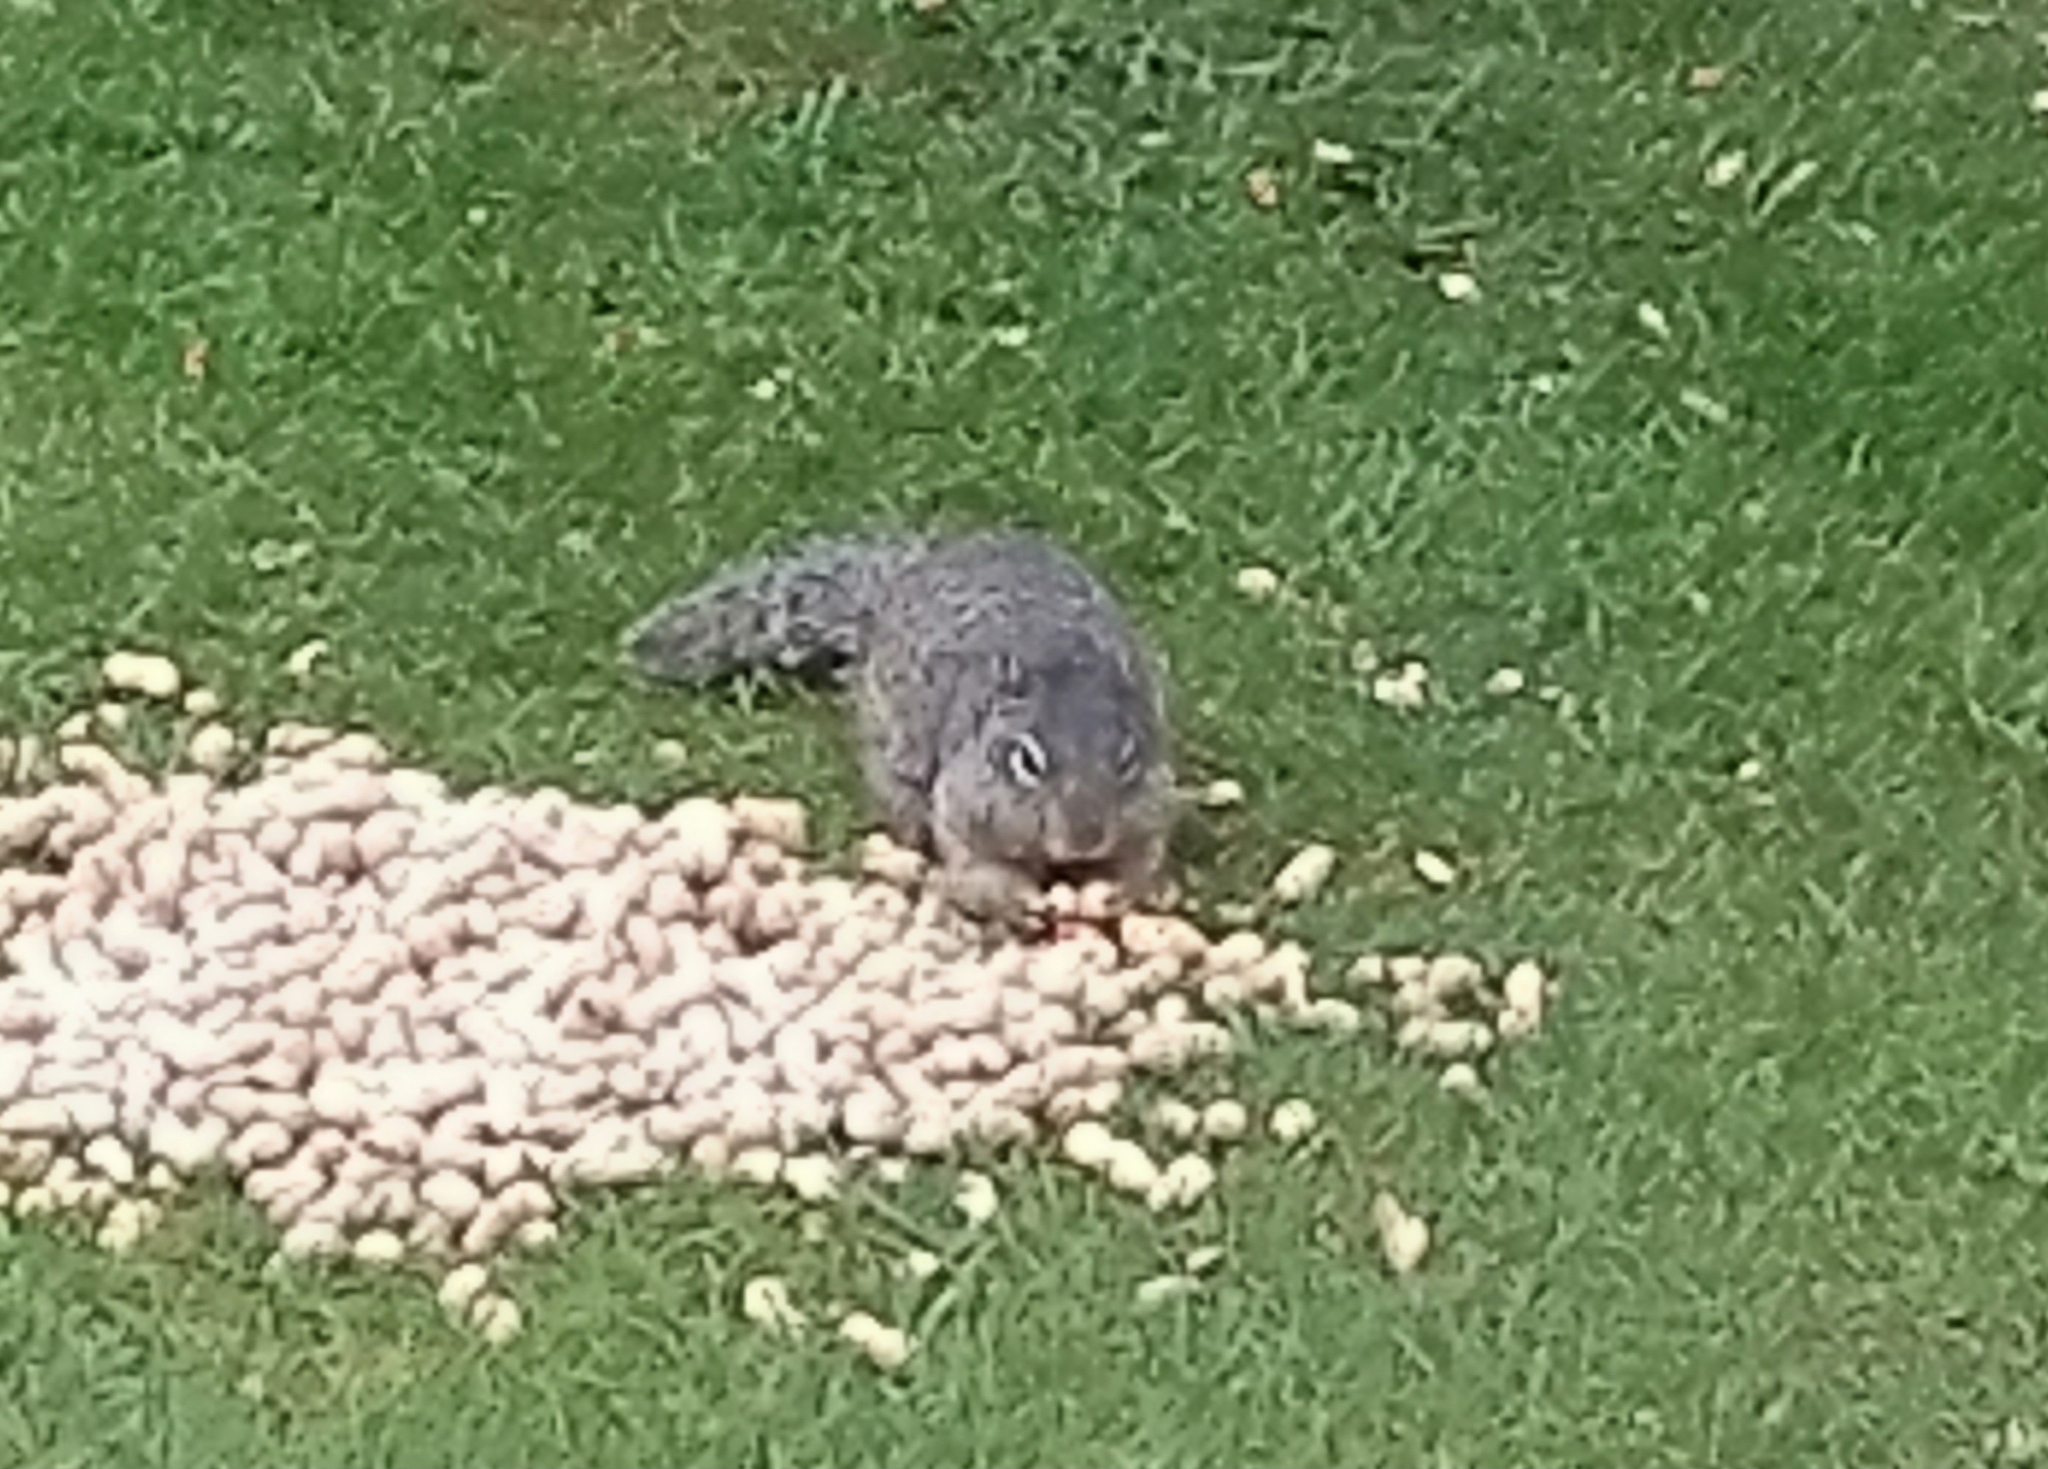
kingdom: Animalia
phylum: Chordata
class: Mammalia
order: Rodentia
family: Sciuridae
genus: Otospermophilus
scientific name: Otospermophilus variegatus
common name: Rock squirrel
